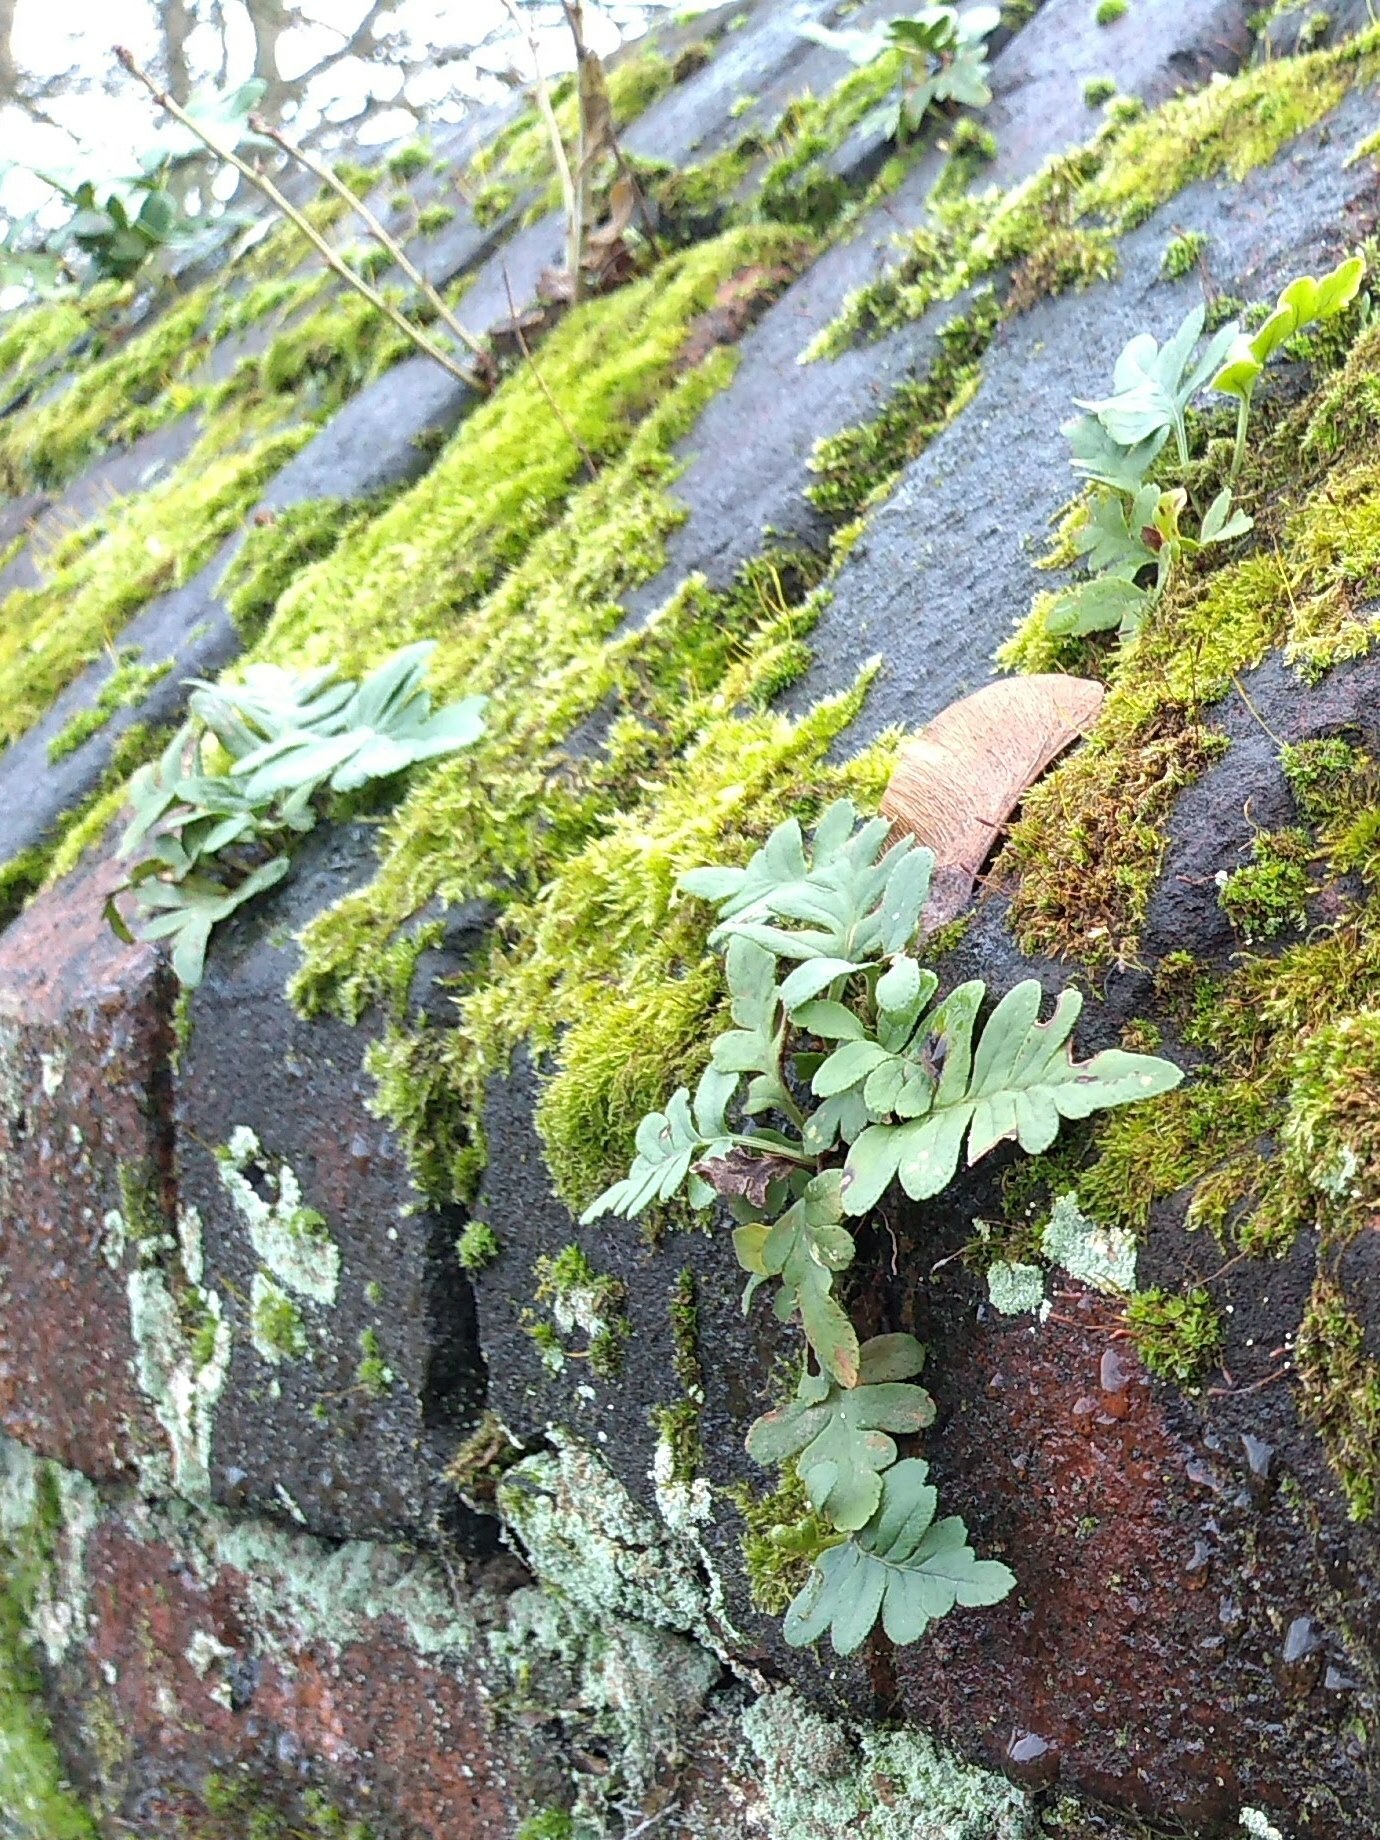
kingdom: Plantae
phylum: Tracheophyta
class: Polypodiopsida
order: Polypodiales
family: Polypodiaceae
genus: Polypodium
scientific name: Polypodium
